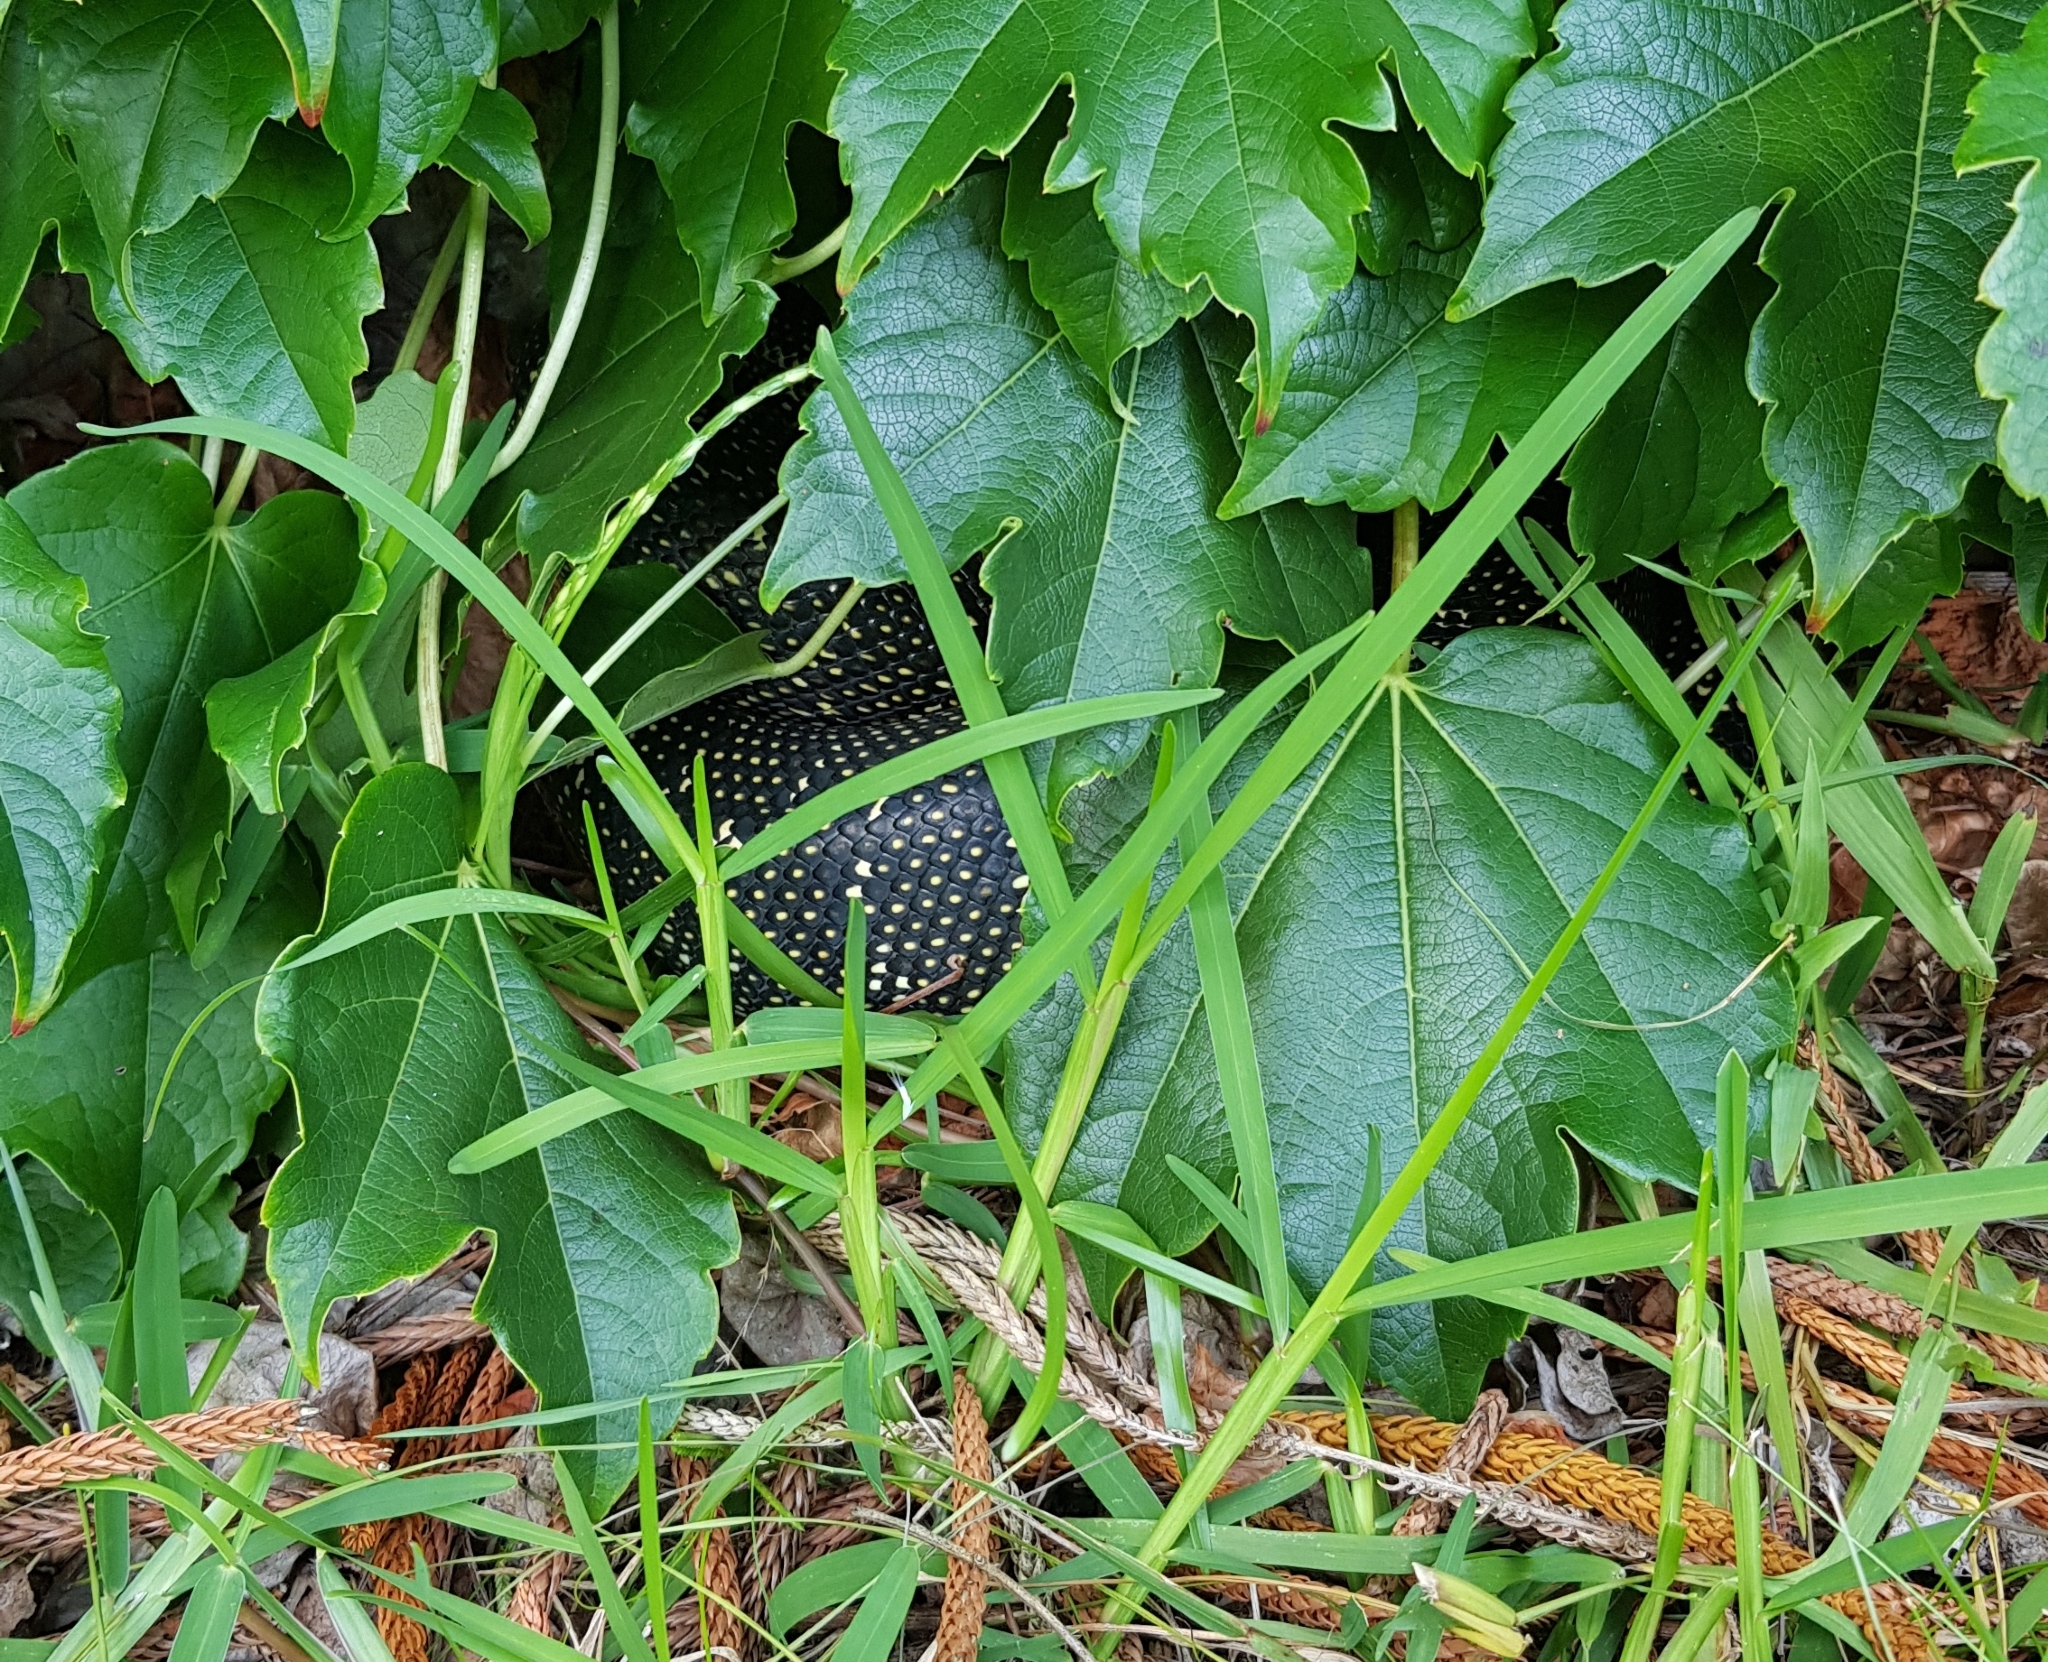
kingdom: Animalia
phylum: Chordata
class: Squamata
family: Pythonidae
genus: Morelia
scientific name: Morelia spilota
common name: Carpet python
